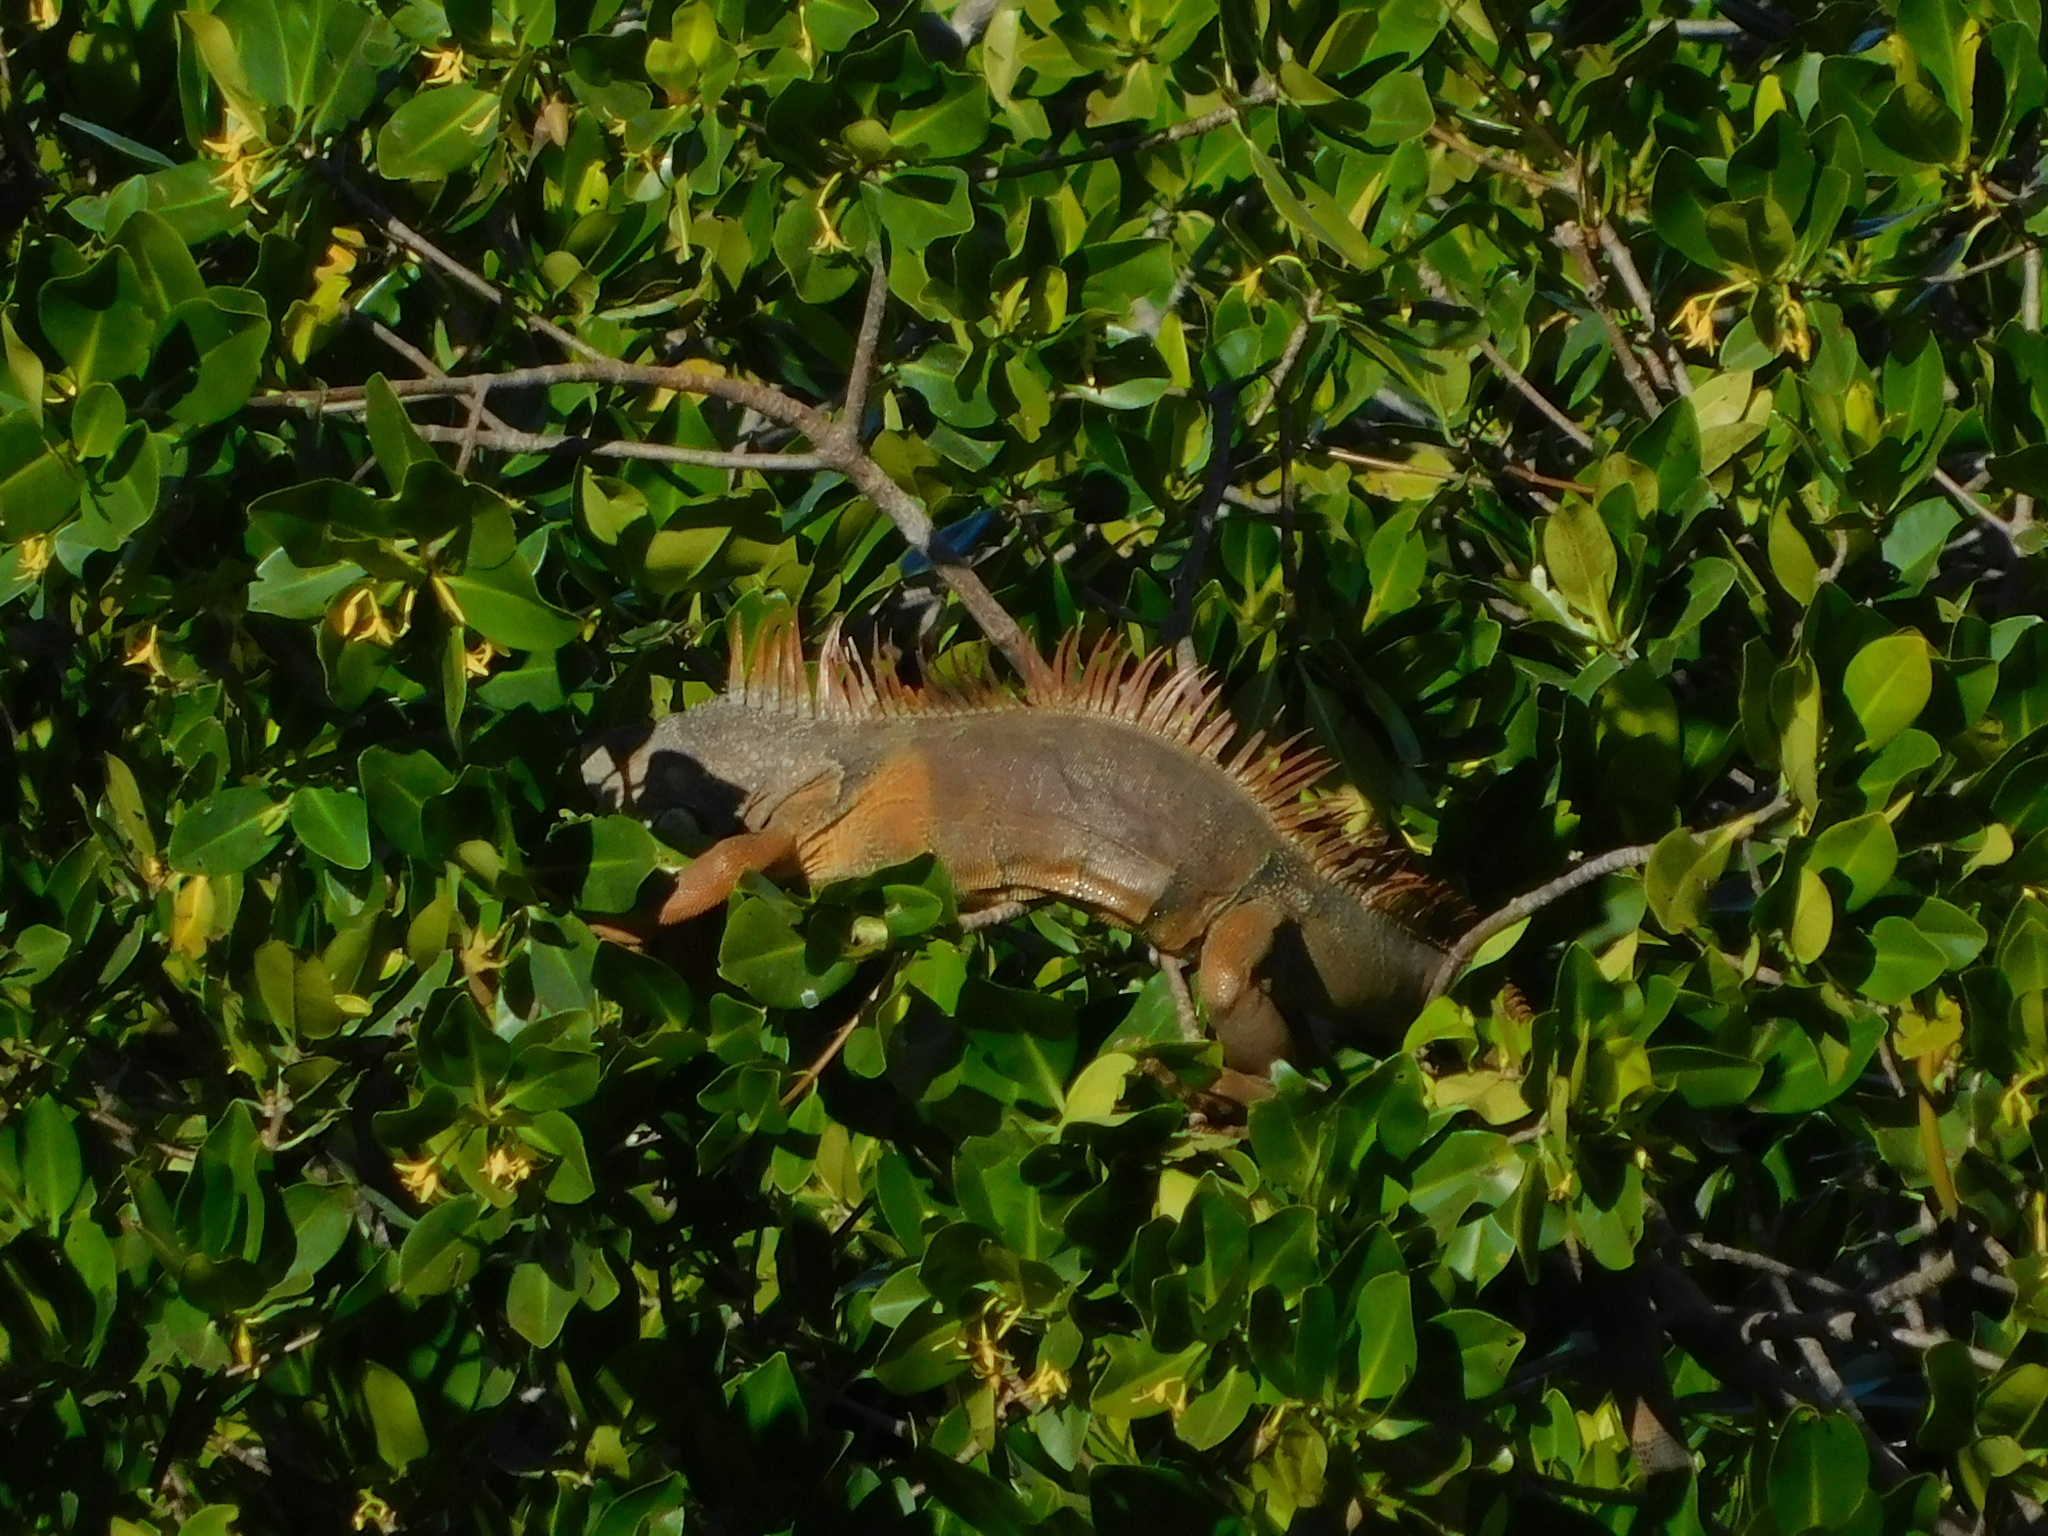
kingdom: Animalia
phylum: Chordata
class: Squamata
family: Iguanidae
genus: Iguana
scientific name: Iguana iguana
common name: Green iguana
